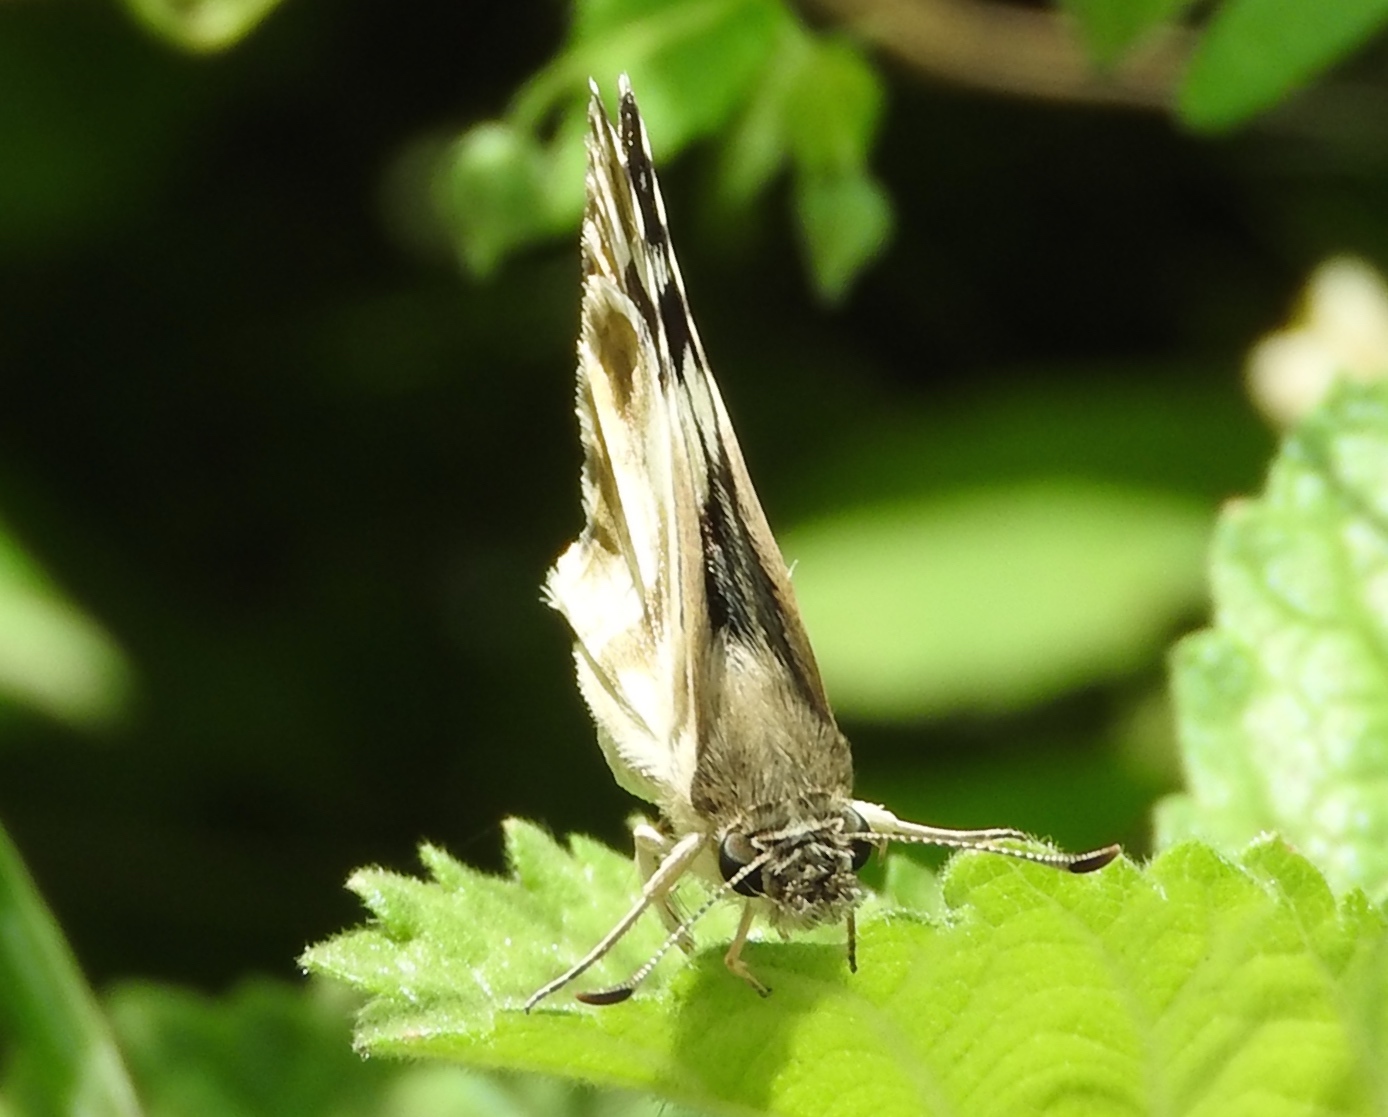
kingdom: Animalia
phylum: Arthropoda
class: Insecta
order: Lepidoptera
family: Hesperiidae
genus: Heliopetes
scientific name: Heliopetes sublinea
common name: East-mexican white-skipper
